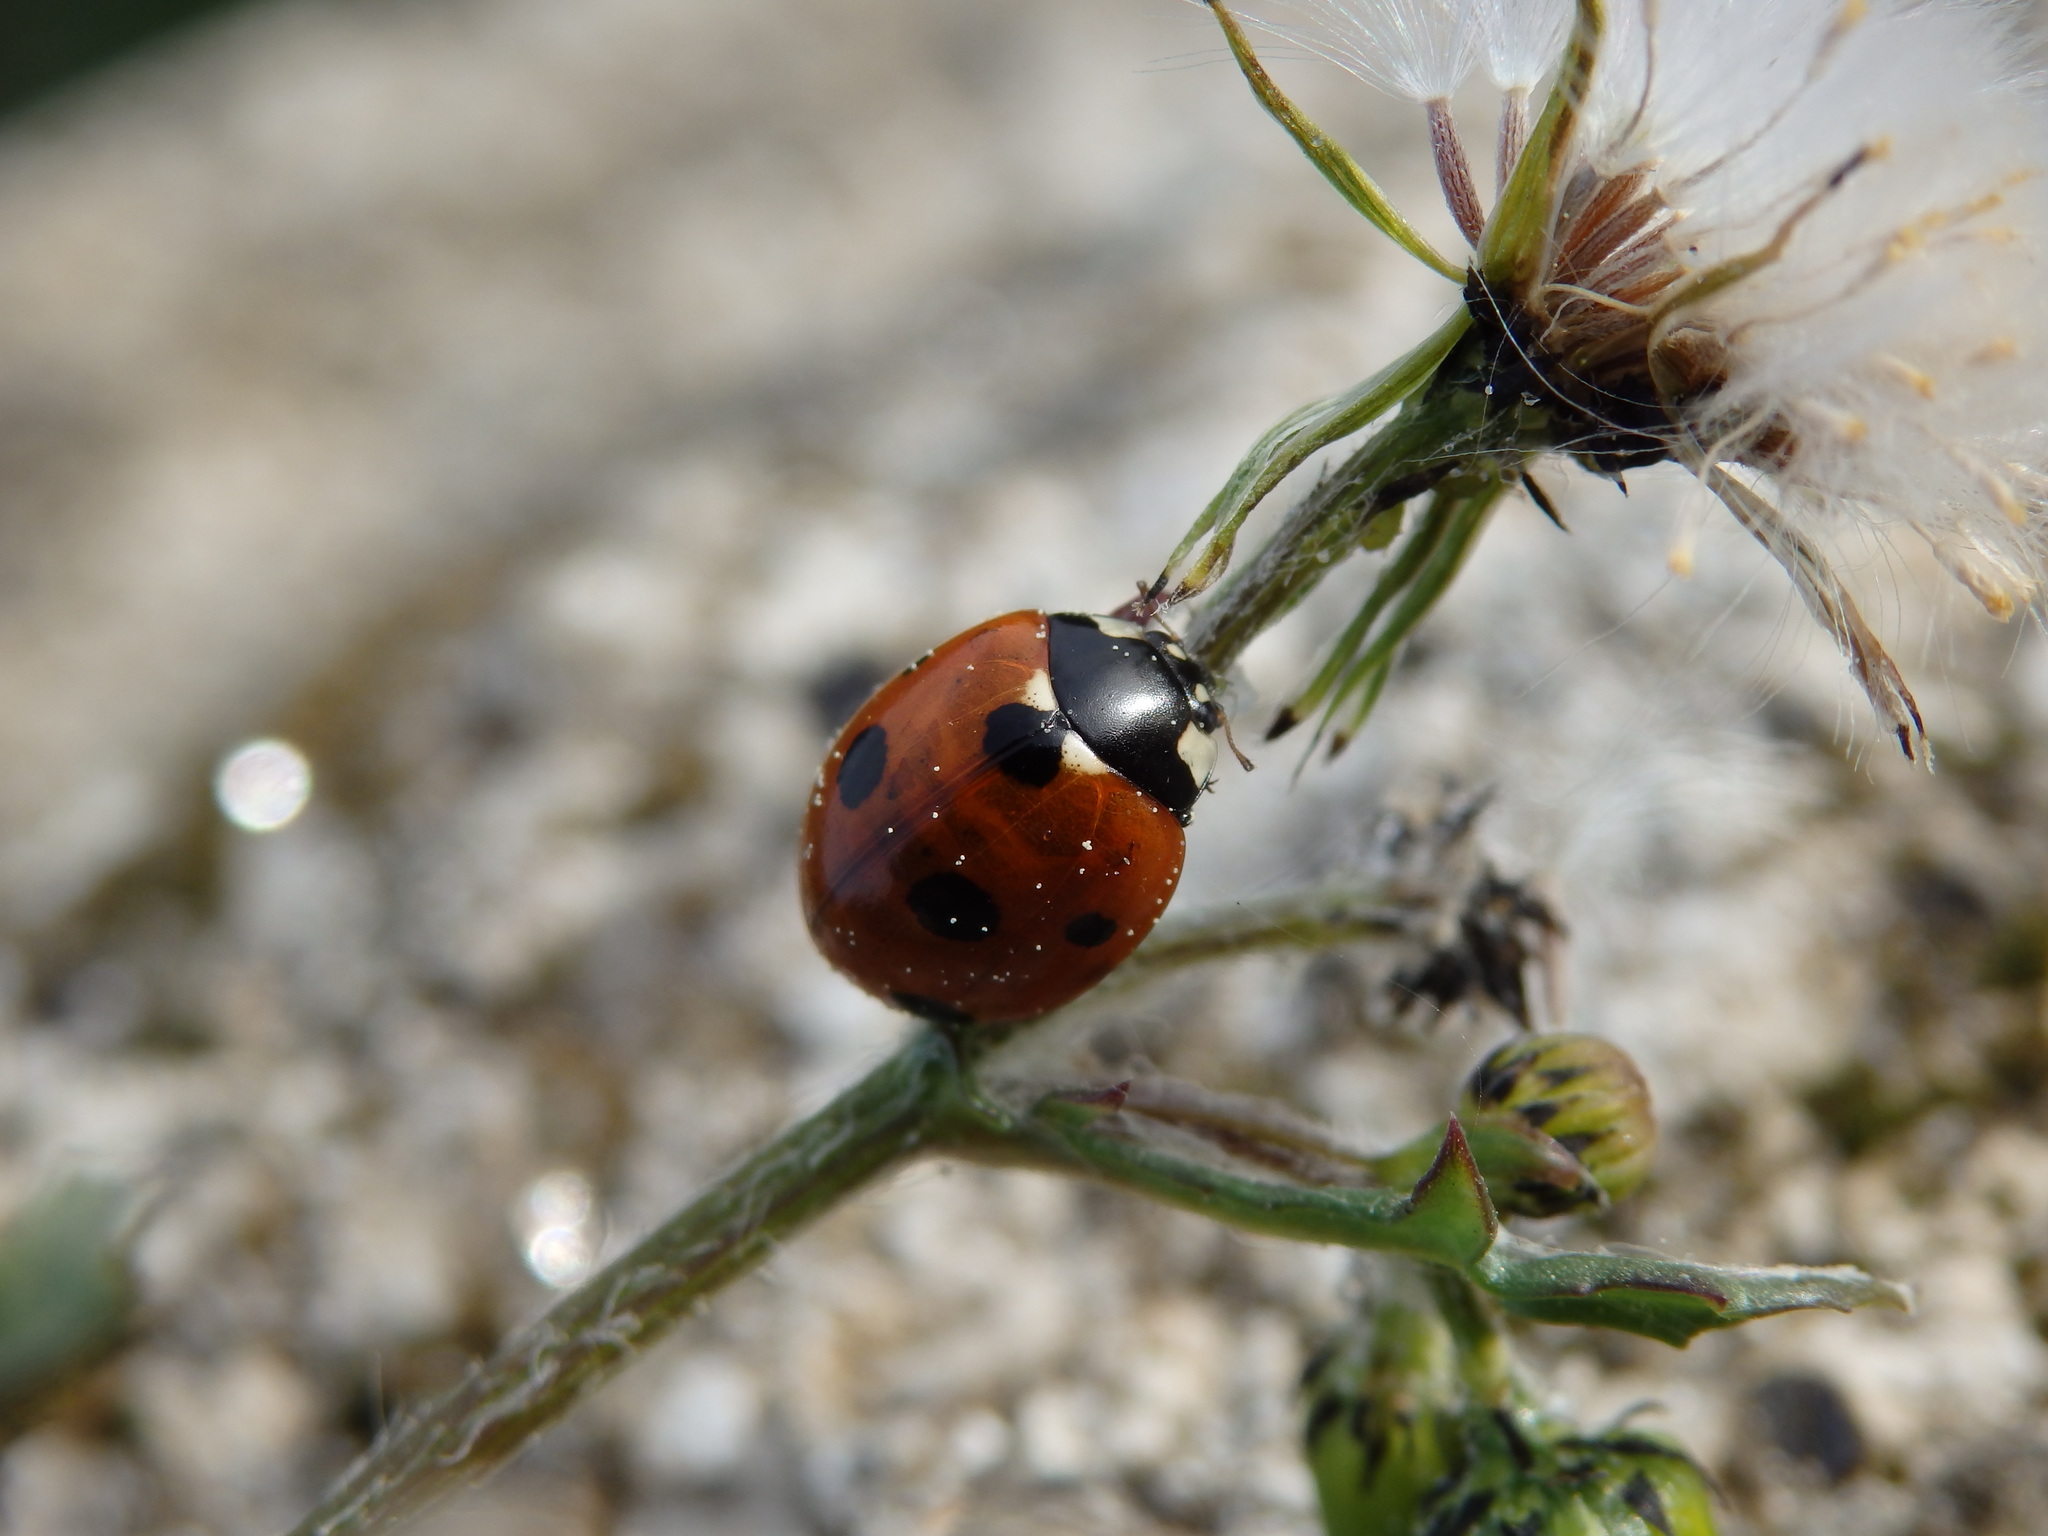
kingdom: Animalia
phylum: Arthropoda
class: Insecta
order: Coleoptera
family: Coccinellidae
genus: Coccinella
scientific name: Coccinella septempunctata
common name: Sevenspotted lady beetle
